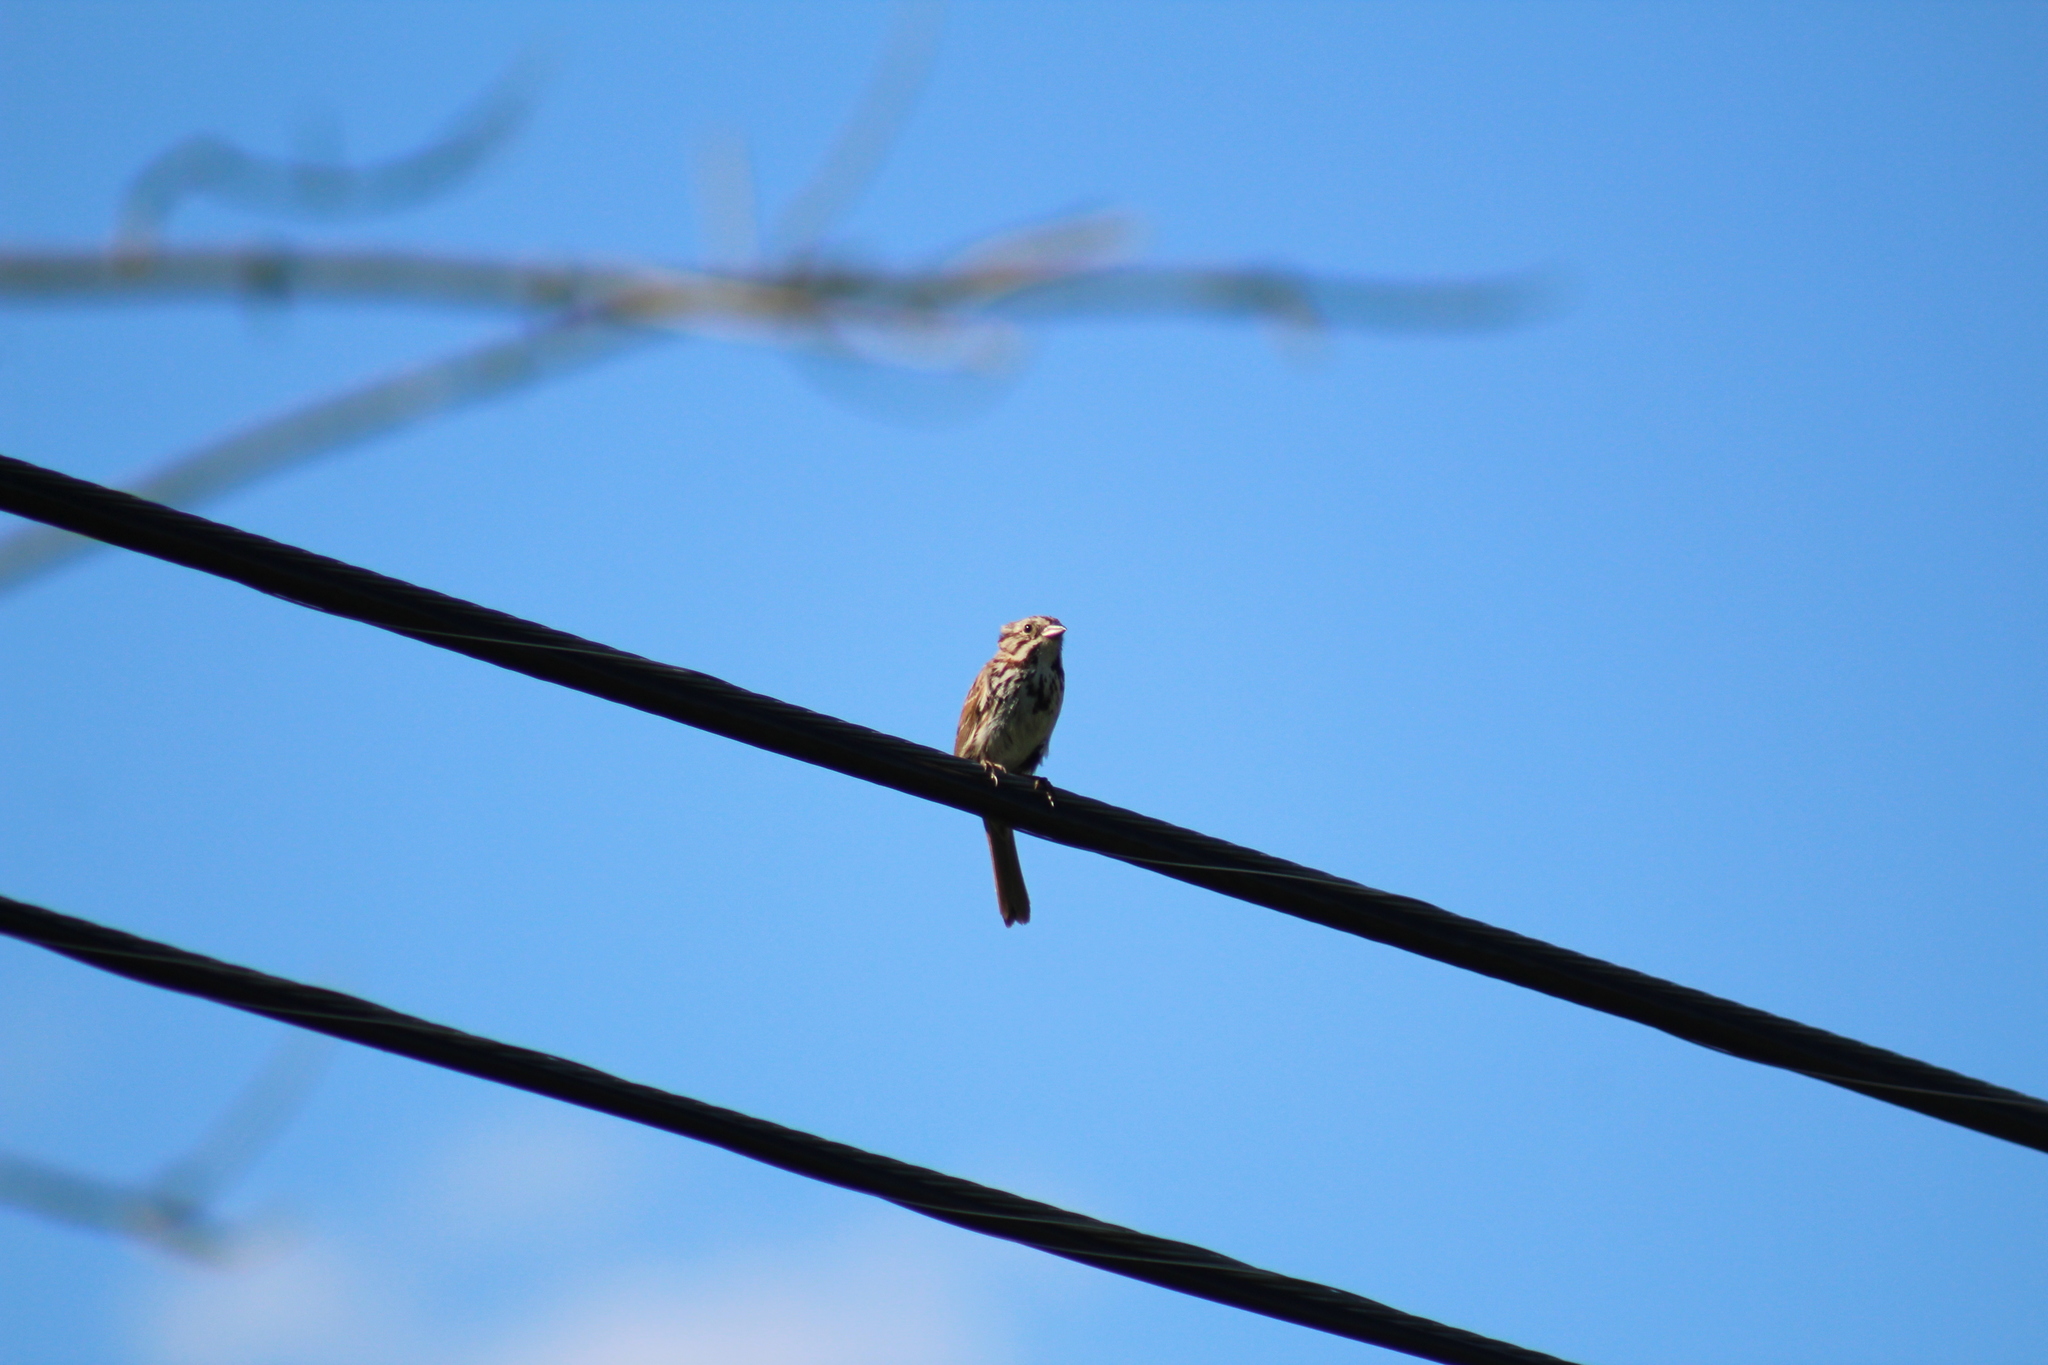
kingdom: Animalia
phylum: Chordata
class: Aves
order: Passeriformes
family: Passerellidae
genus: Melospiza
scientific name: Melospiza melodia
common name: Song sparrow
